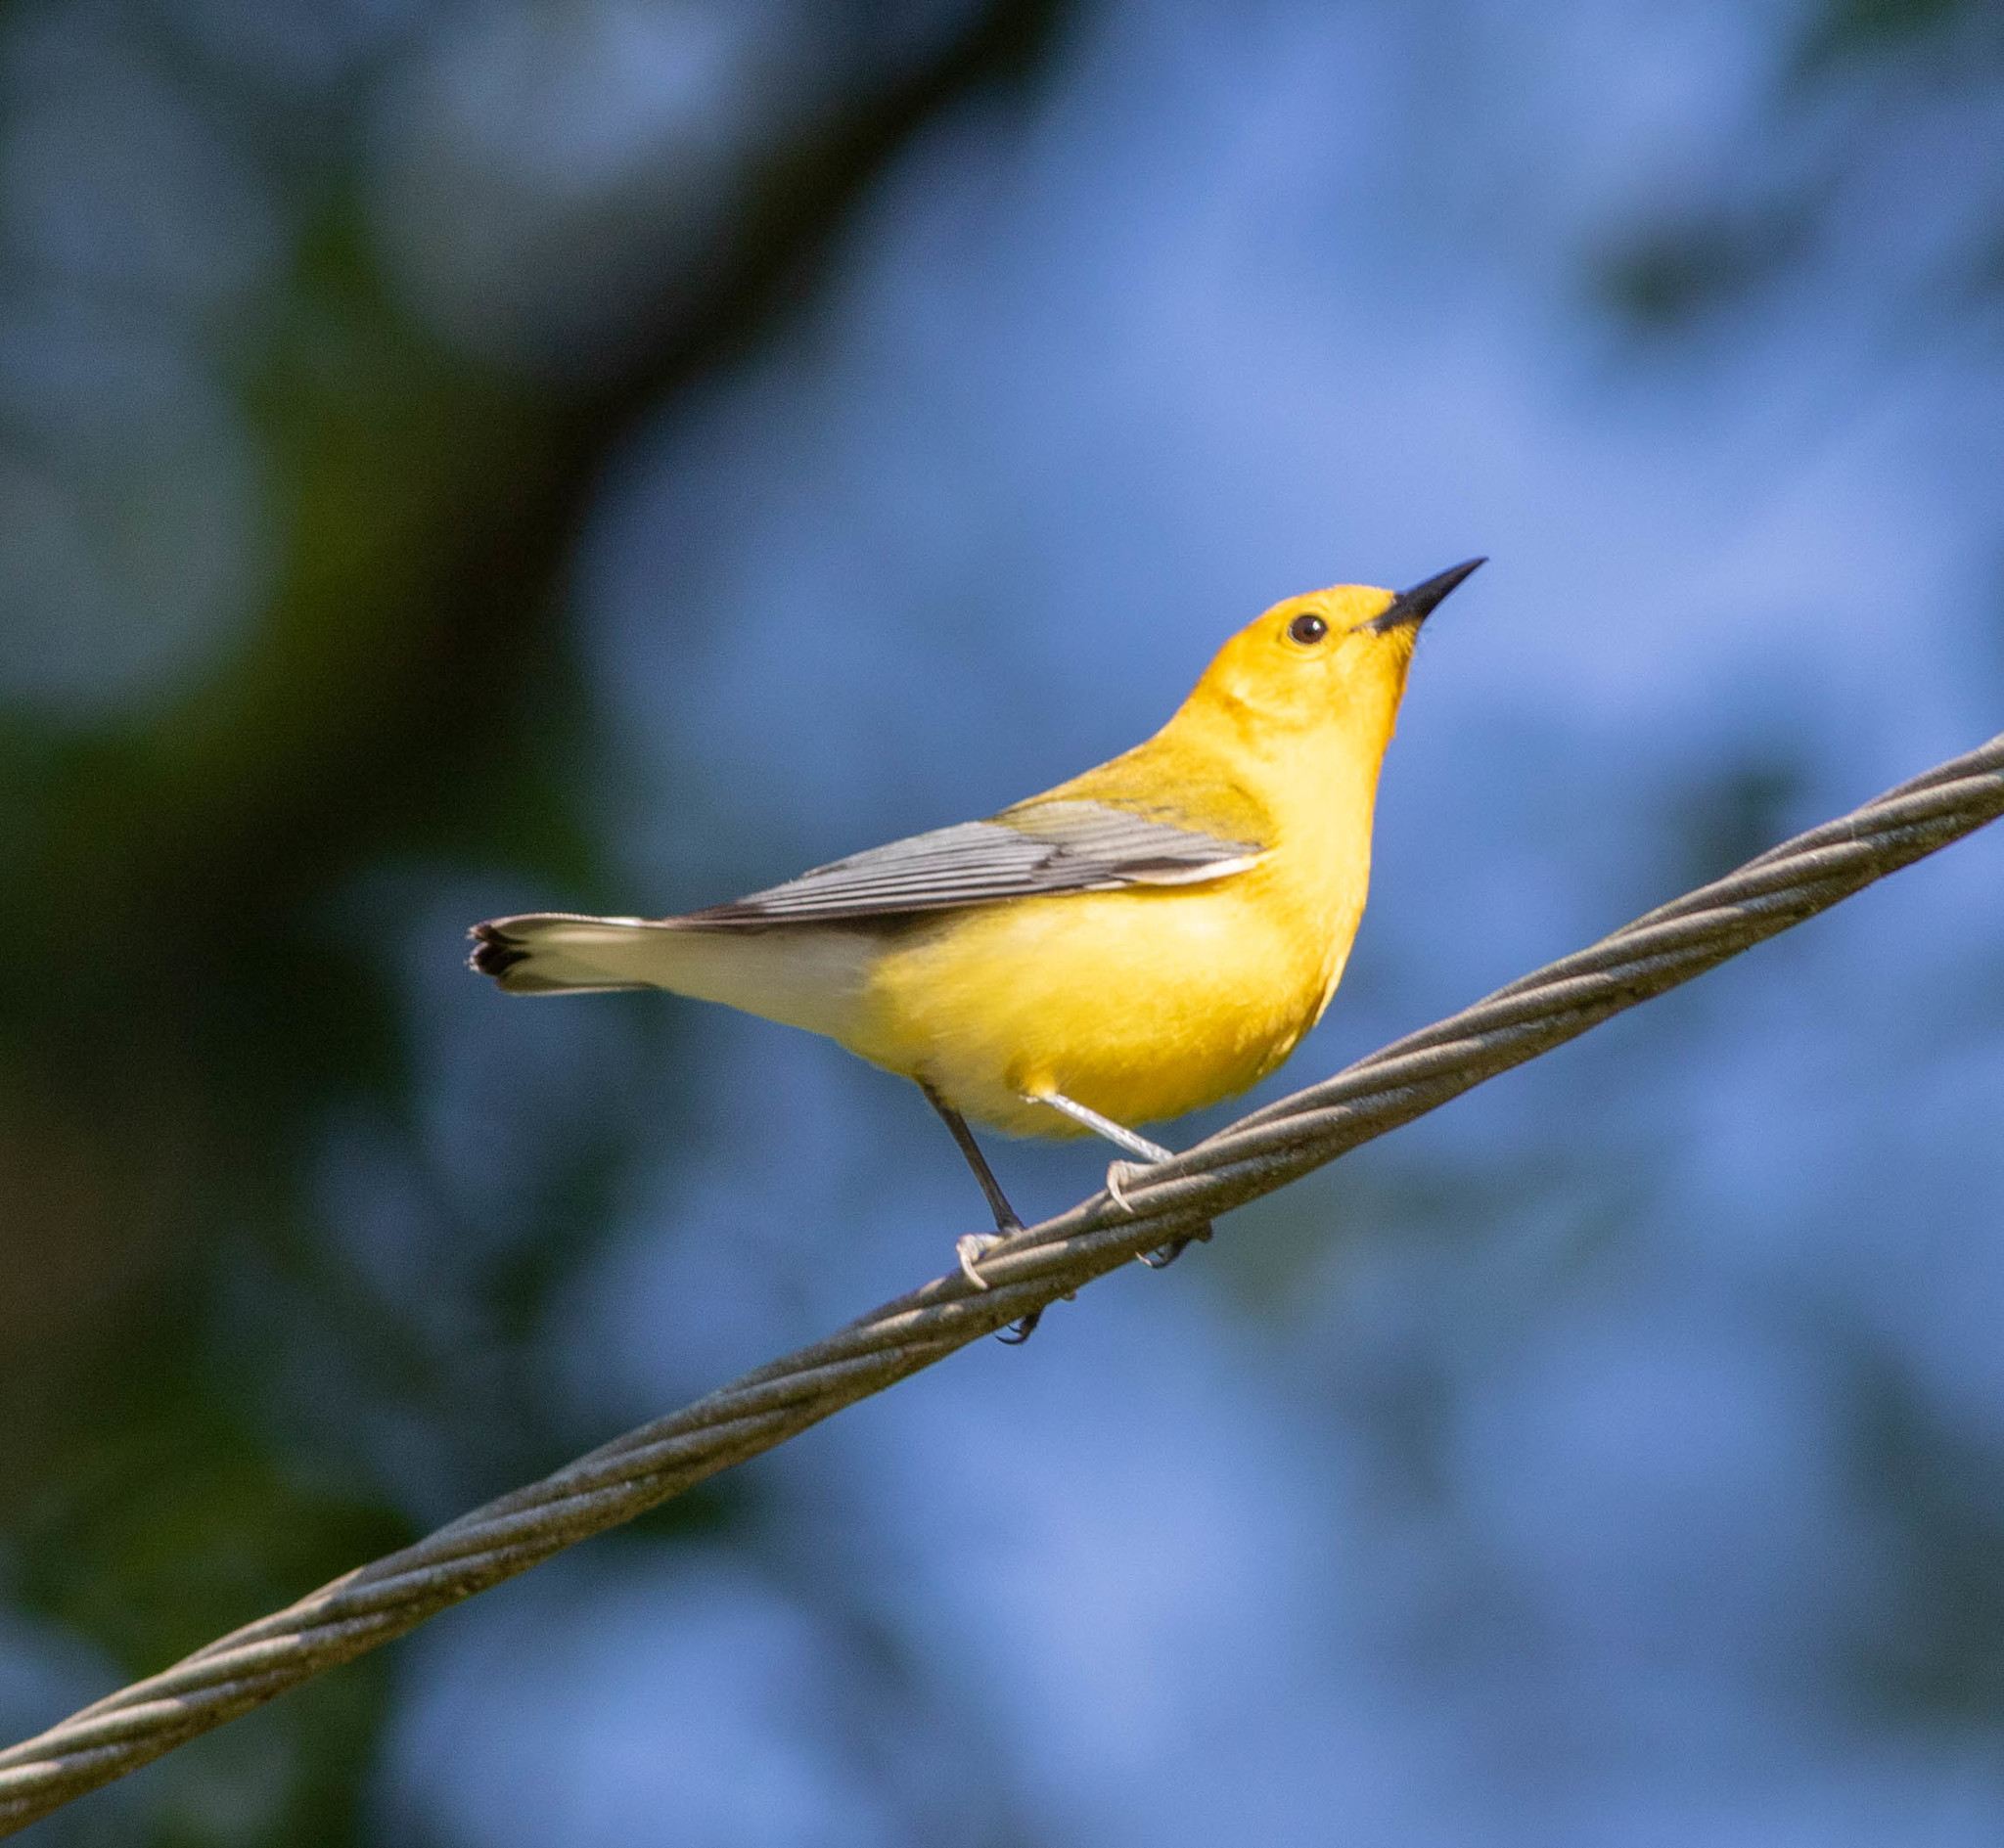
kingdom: Animalia
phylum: Chordata
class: Aves
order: Passeriformes
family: Parulidae
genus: Protonotaria
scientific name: Protonotaria citrea
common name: Prothonotary warbler
